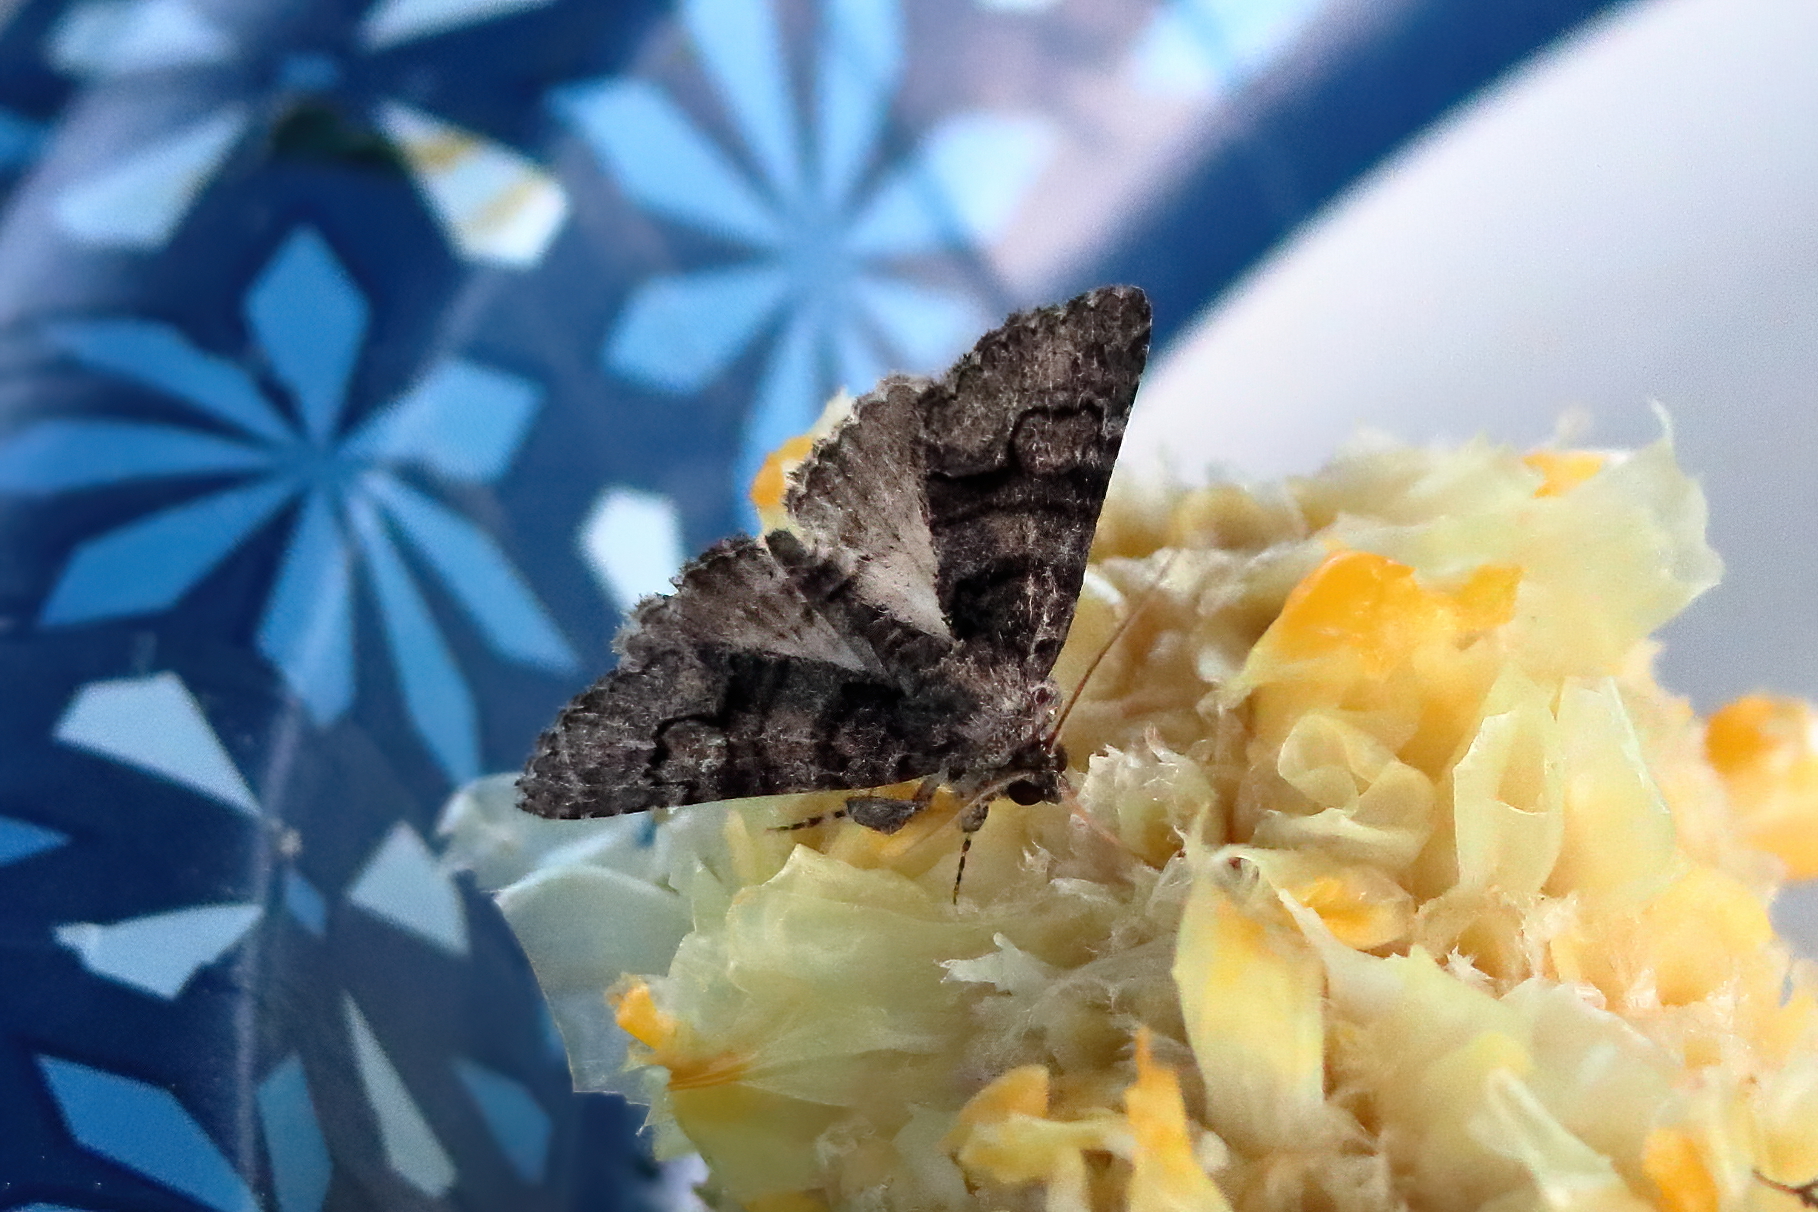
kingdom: Animalia
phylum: Arthropoda
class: Insecta
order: Lepidoptera
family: Erebidae
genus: Elousa
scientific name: Elousa mima
